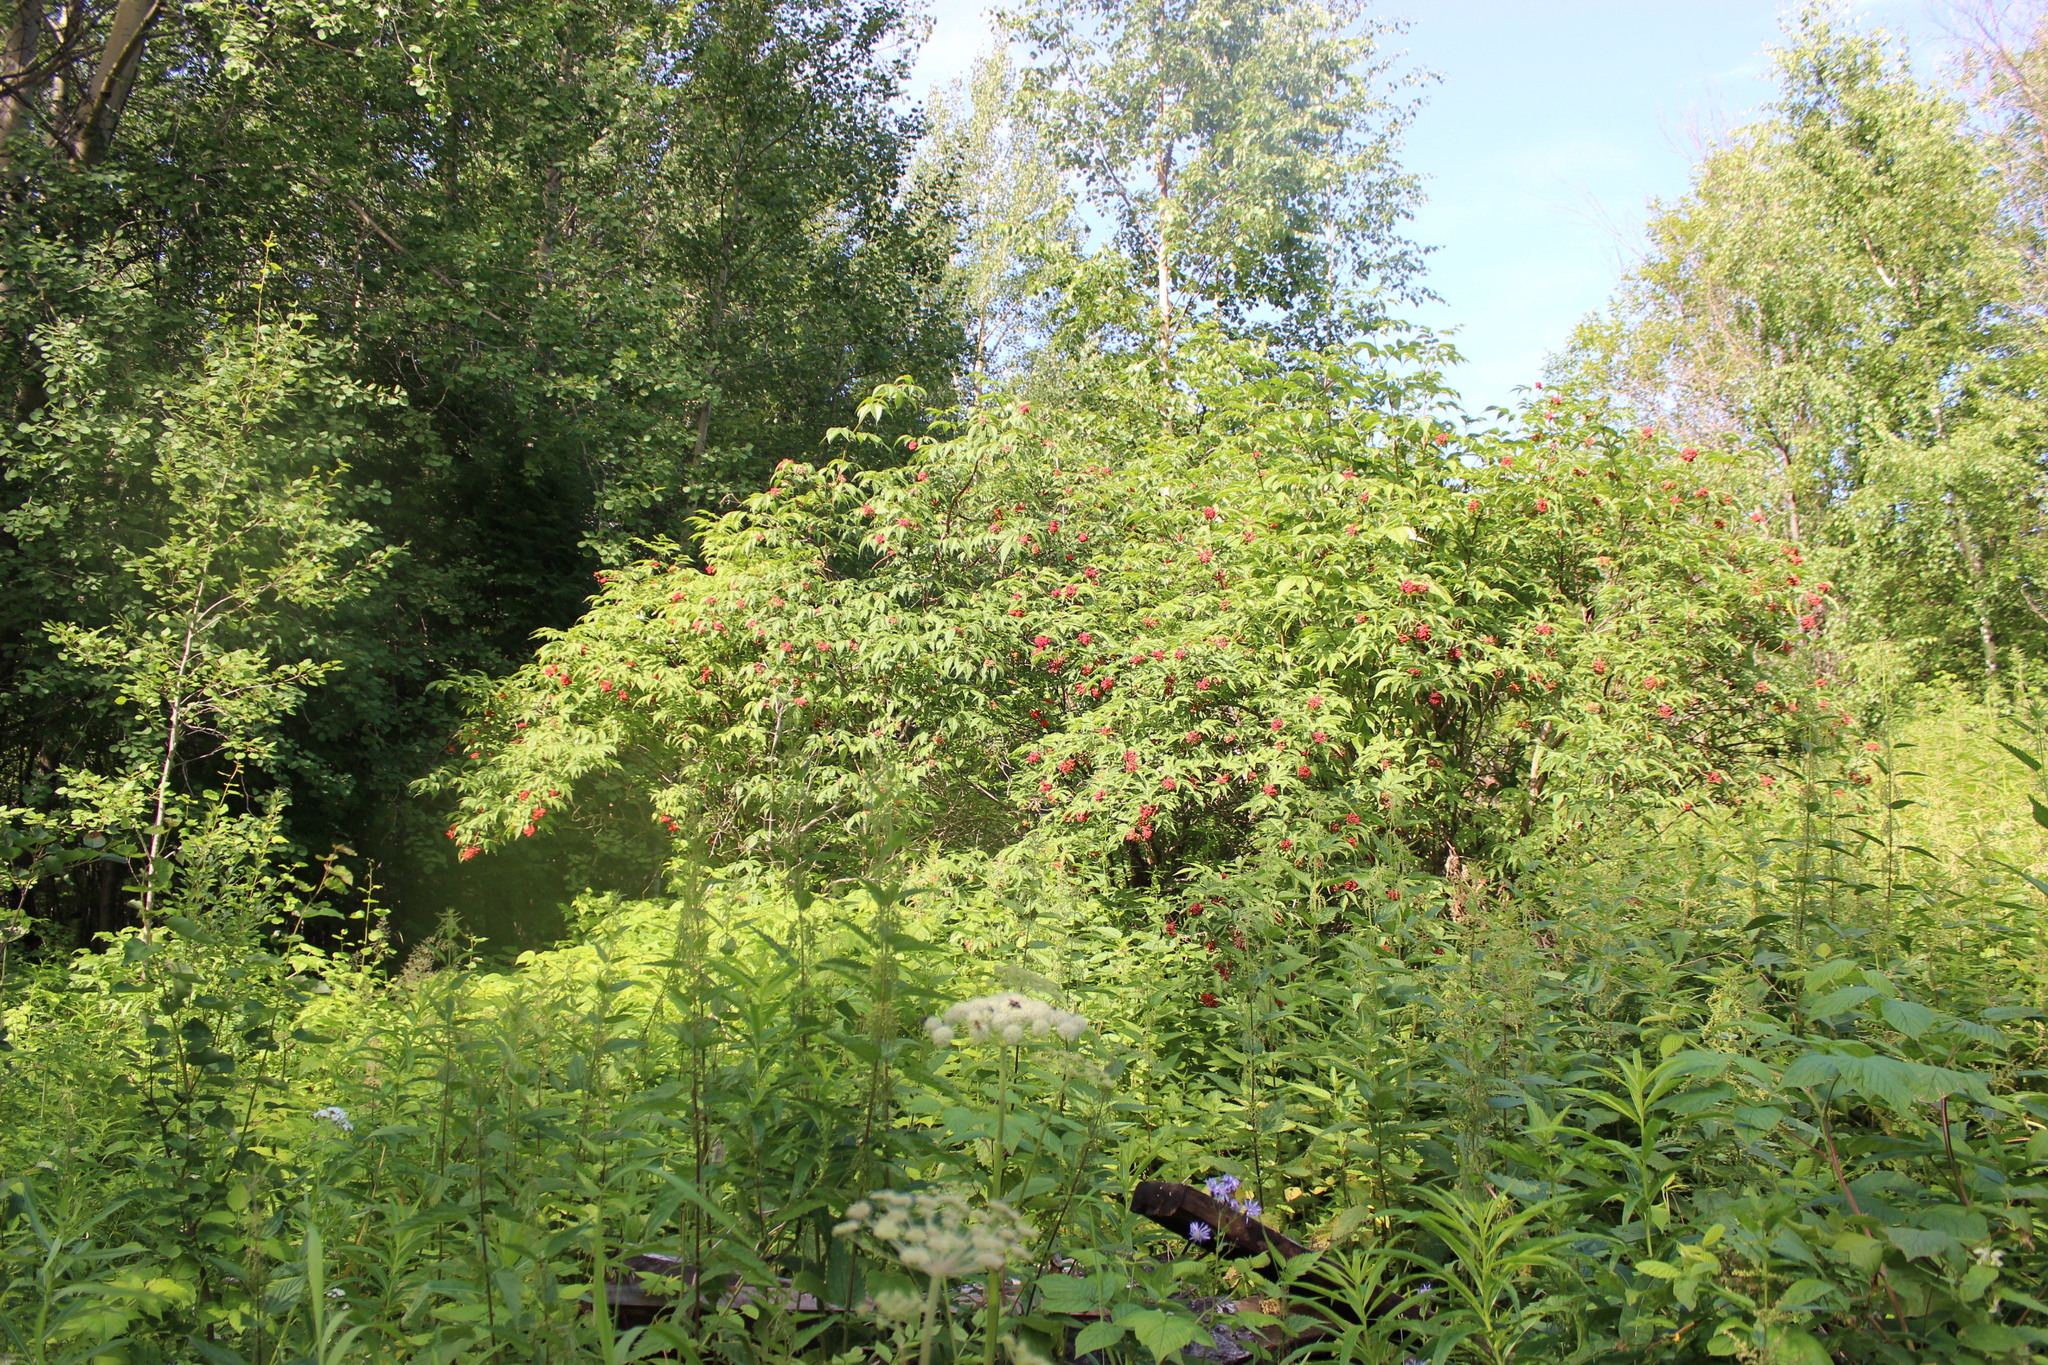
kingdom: Plantae
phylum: Tracheophyta
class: Magnoliopsida
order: Dipsacales
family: Viburnaceae
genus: Sambucus
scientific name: Sambucus sibirica
